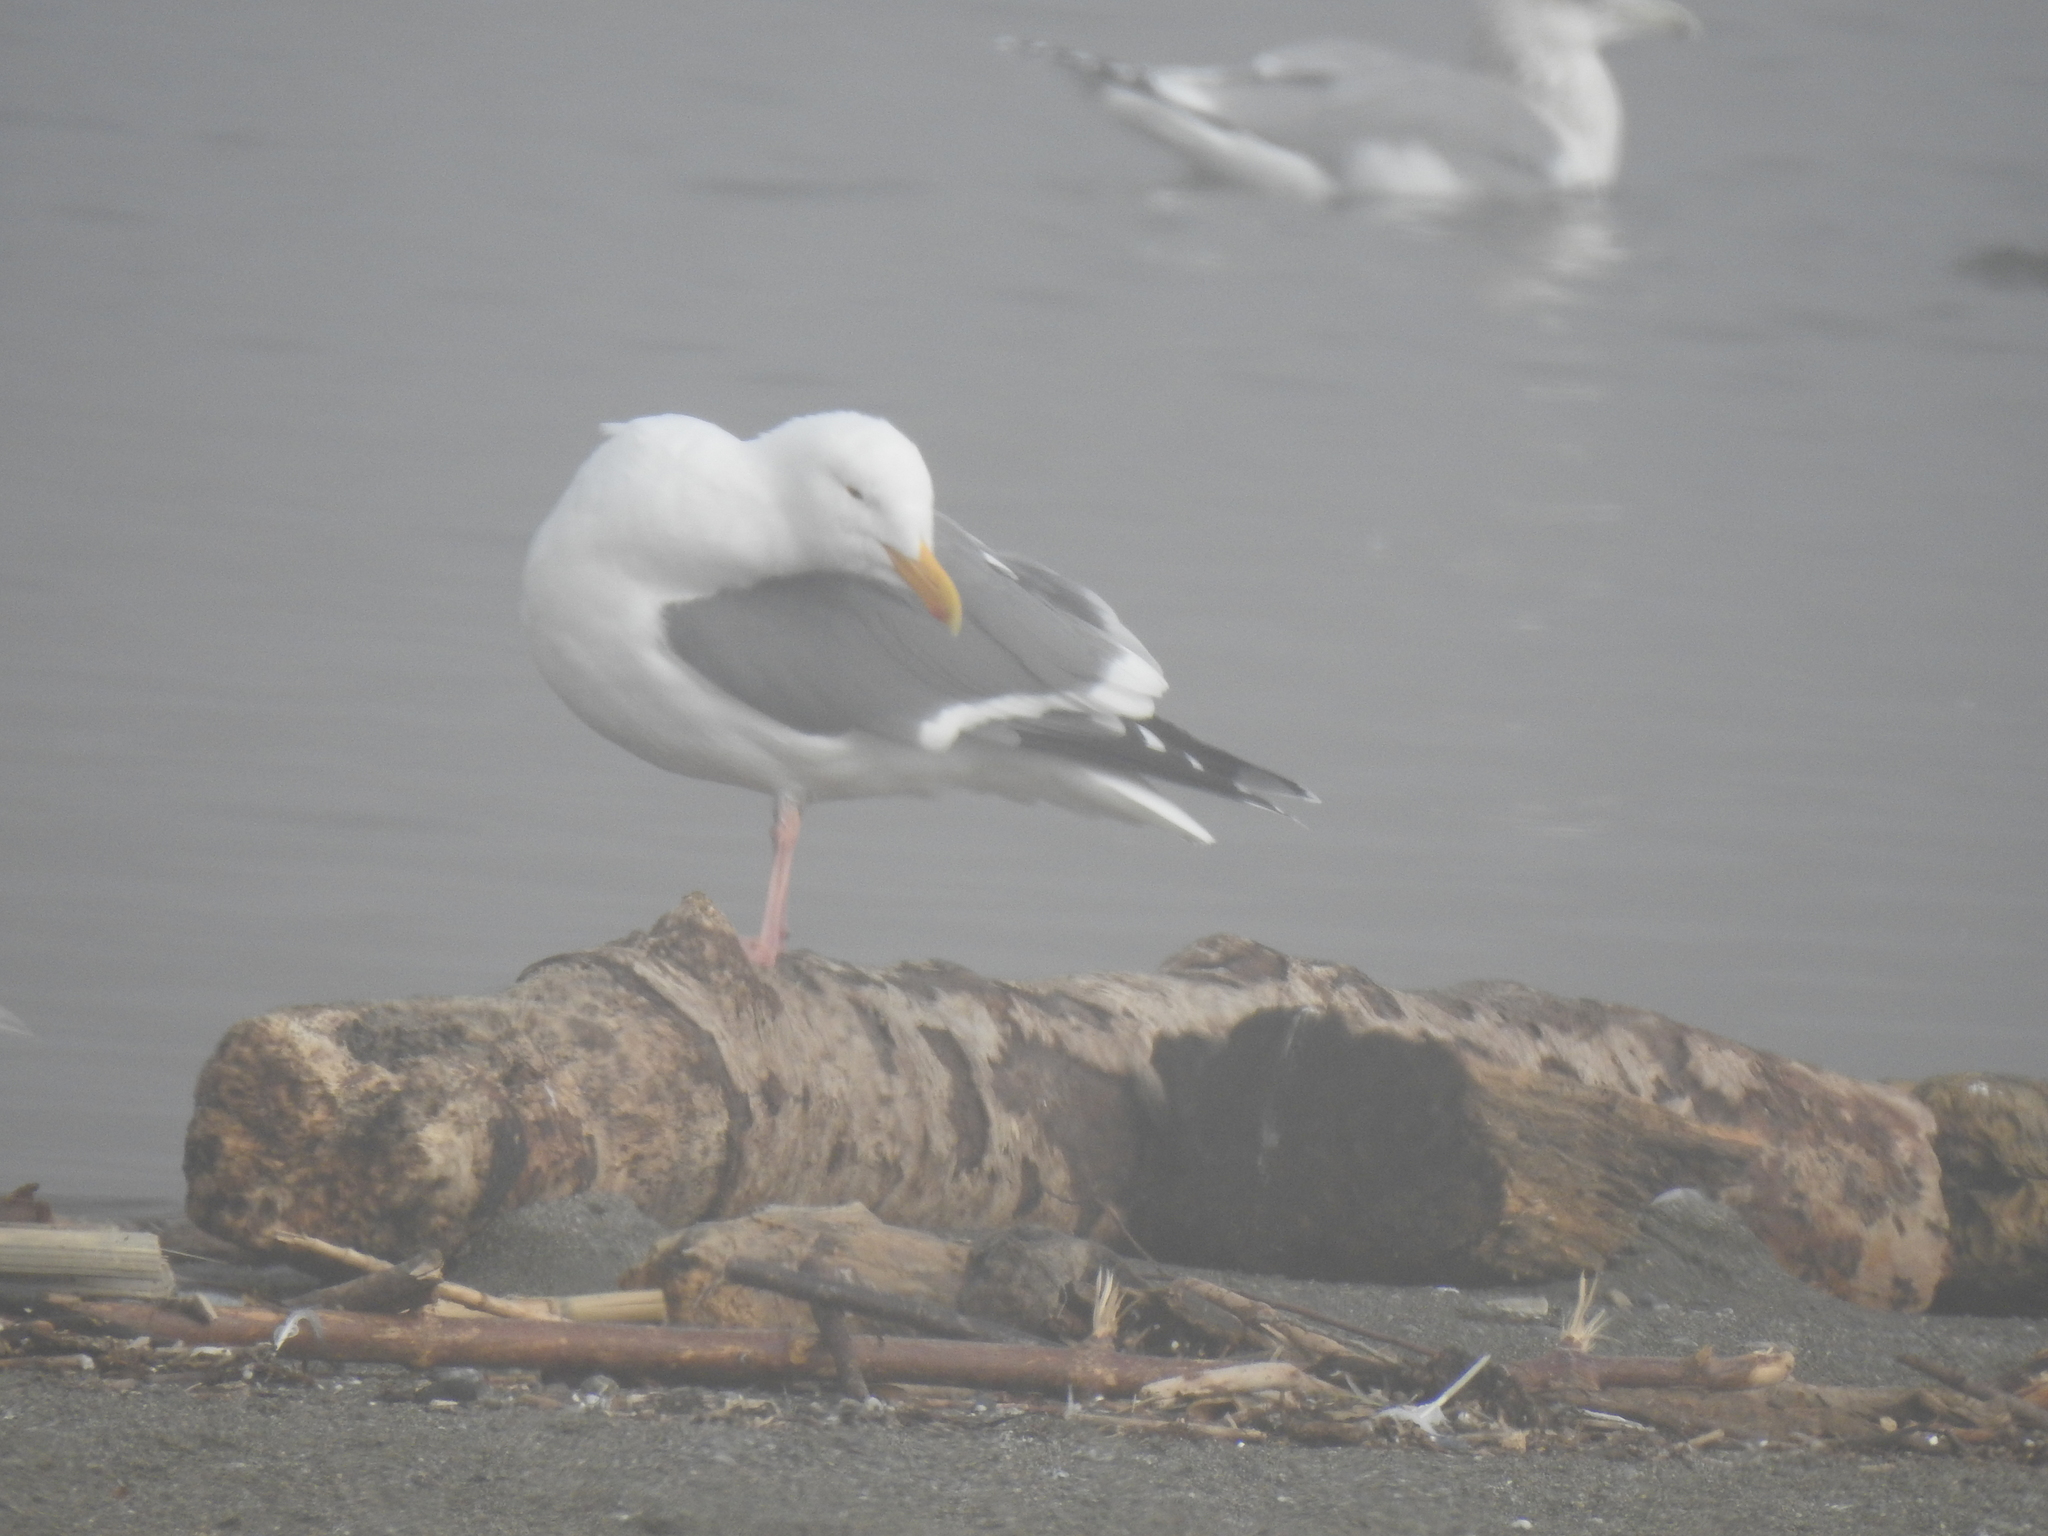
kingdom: Animalia
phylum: Chordata
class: Aves
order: Charadriiformes
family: Laridae
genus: Larus
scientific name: Larus occidentalis
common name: Western gull
